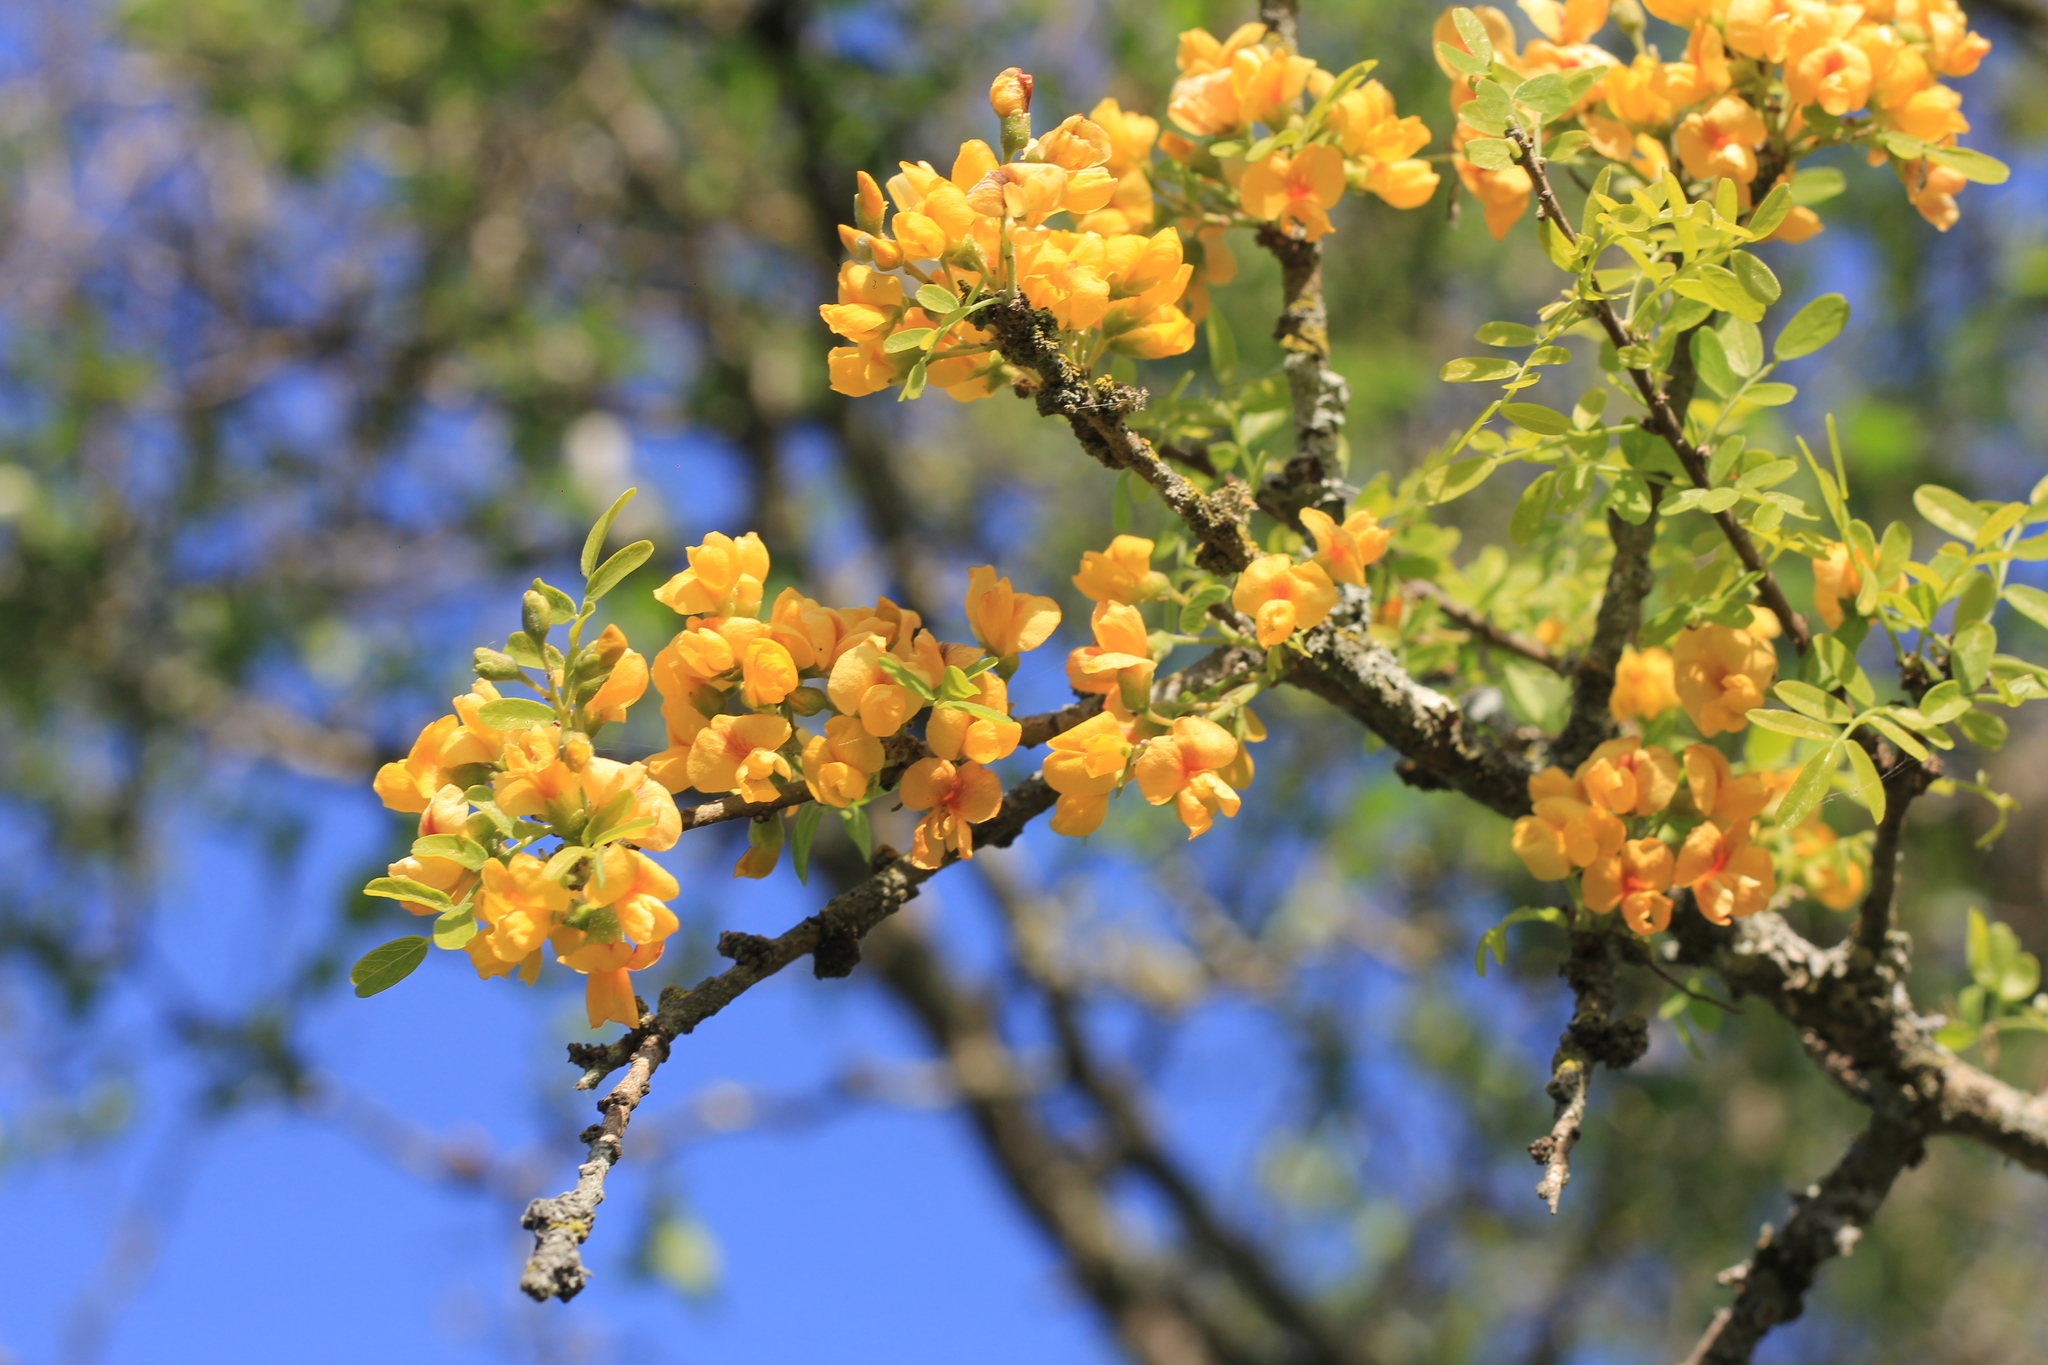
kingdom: Plantae
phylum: Tracheophyta
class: Magnoliopsida
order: Fabales
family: Fabaceae
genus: Geoffroea
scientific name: Geoffroea decorticans
